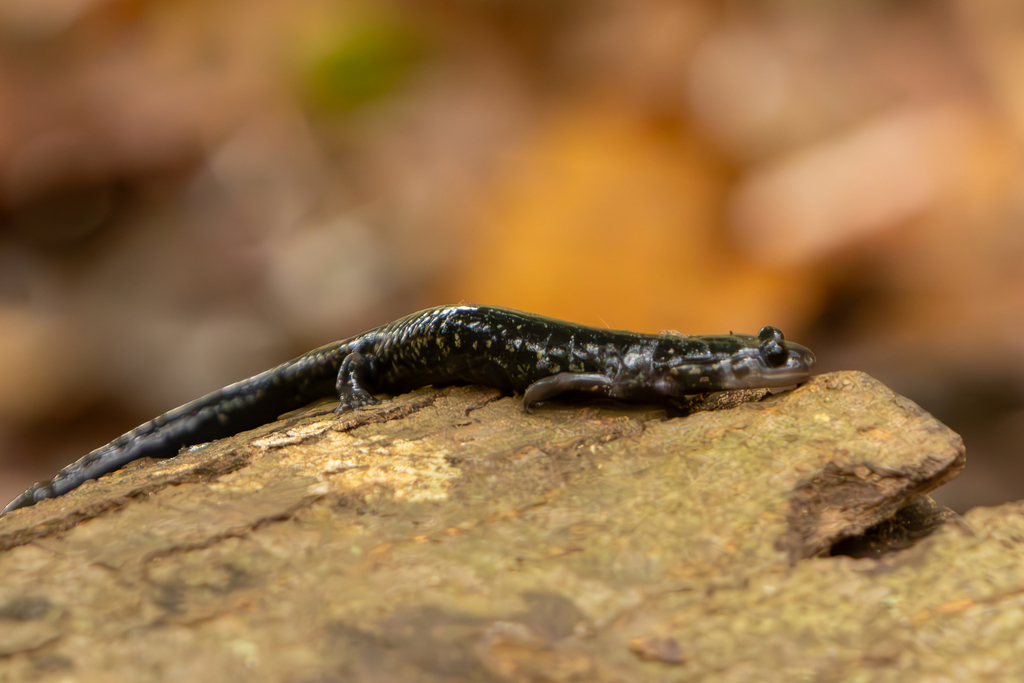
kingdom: Animalia
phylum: Chordata
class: Amphibia
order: Caudata
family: Plethodontidae
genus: Plethodon
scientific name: Plethodon glutinosus
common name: Northern slimy salamander
